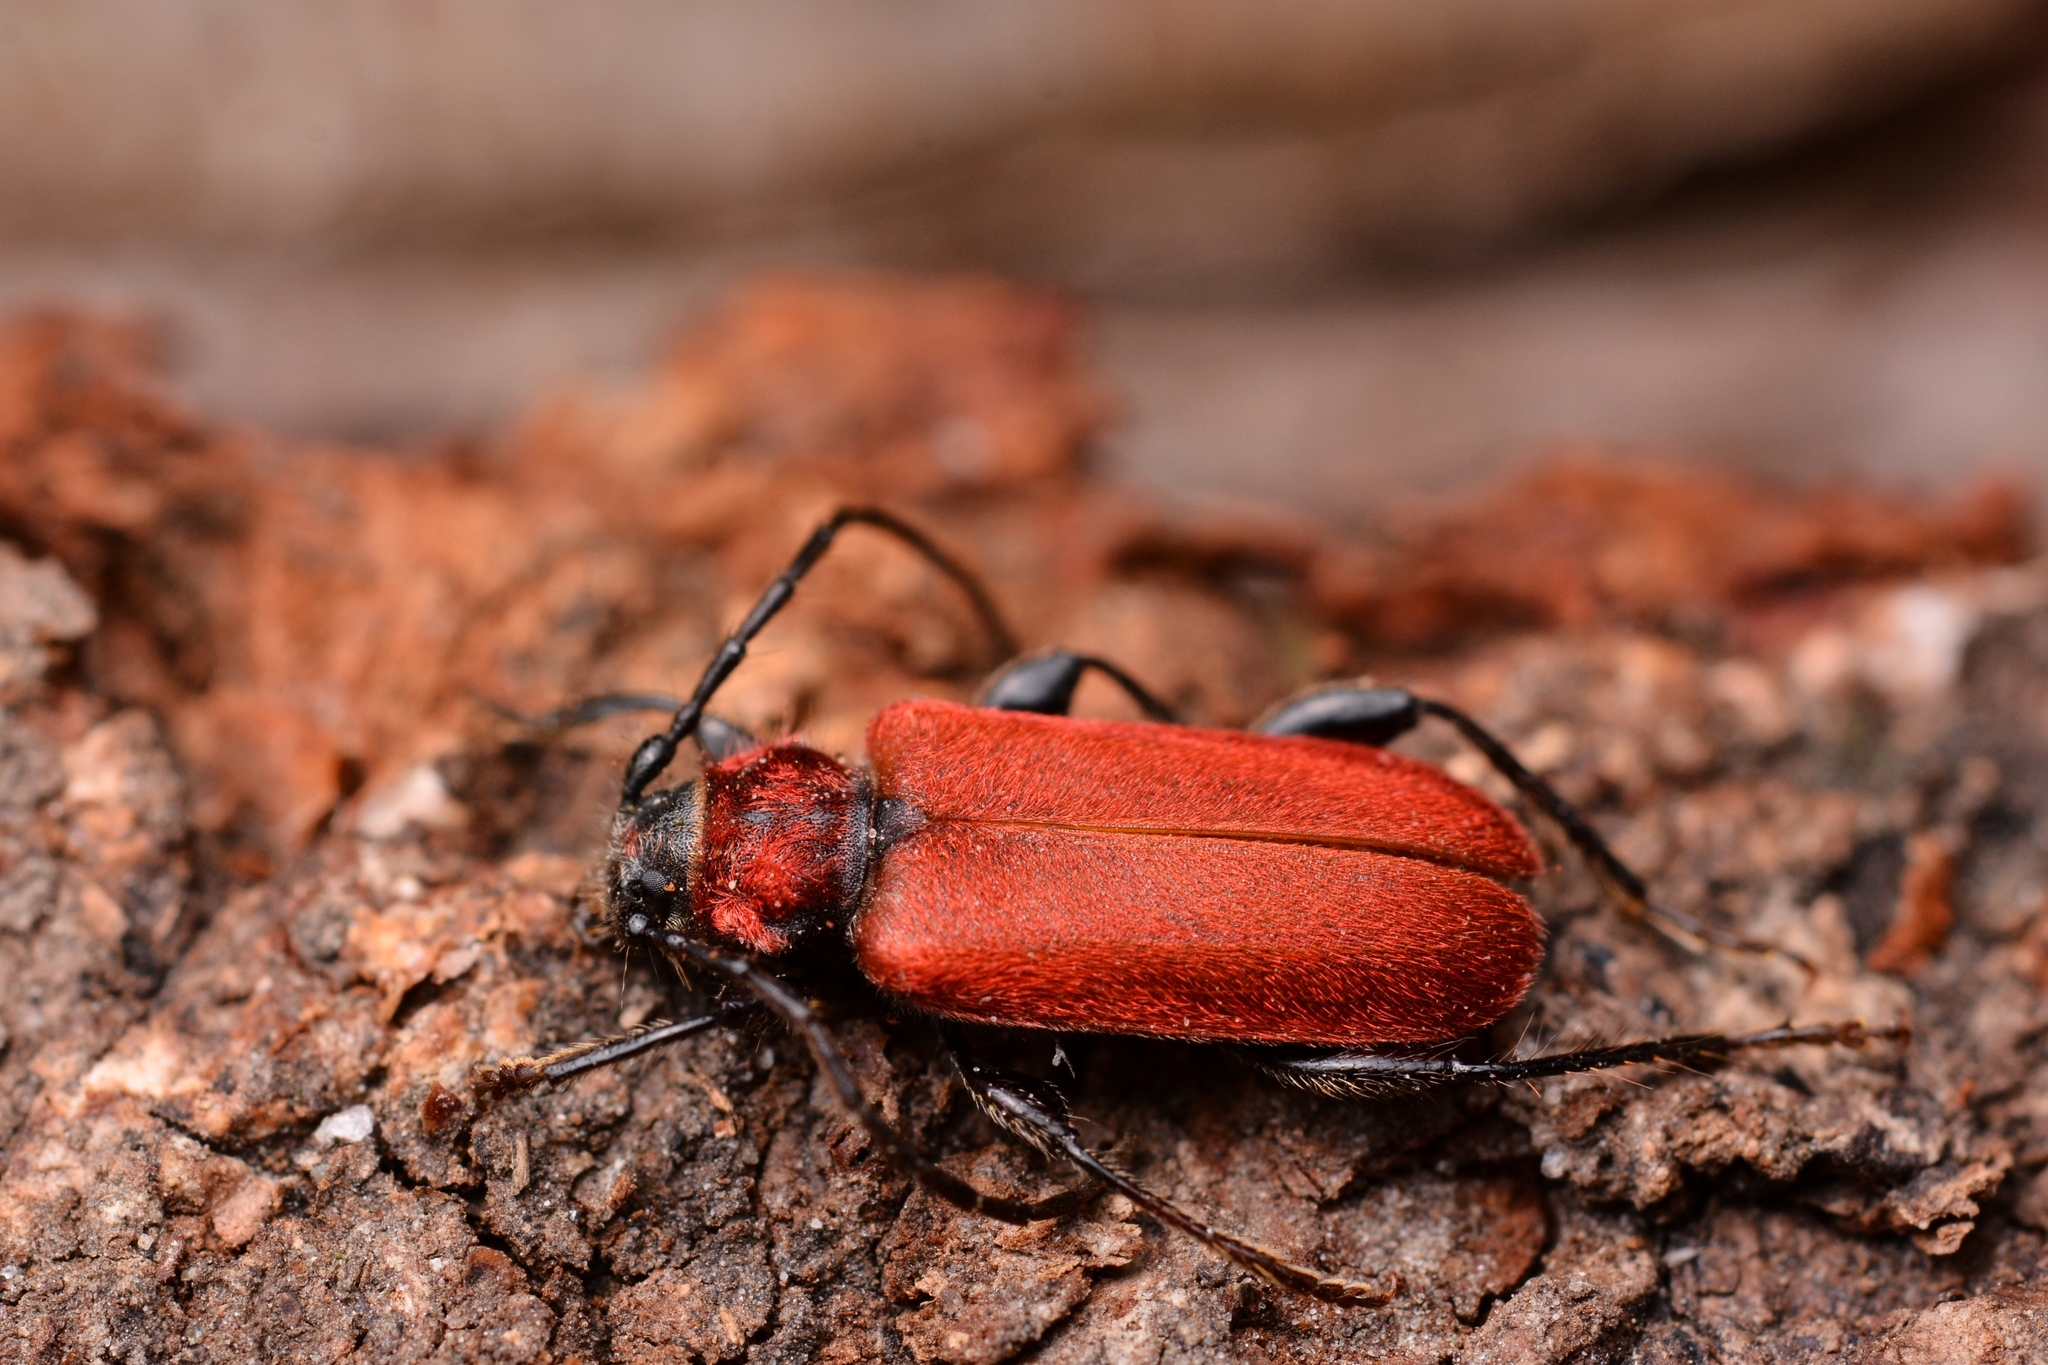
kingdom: Animalia
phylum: Arthropoda
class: Insecta
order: Coleoptera
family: Cerambycidae
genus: Pyrrhidium
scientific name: Pyrrhidium sanguineum
